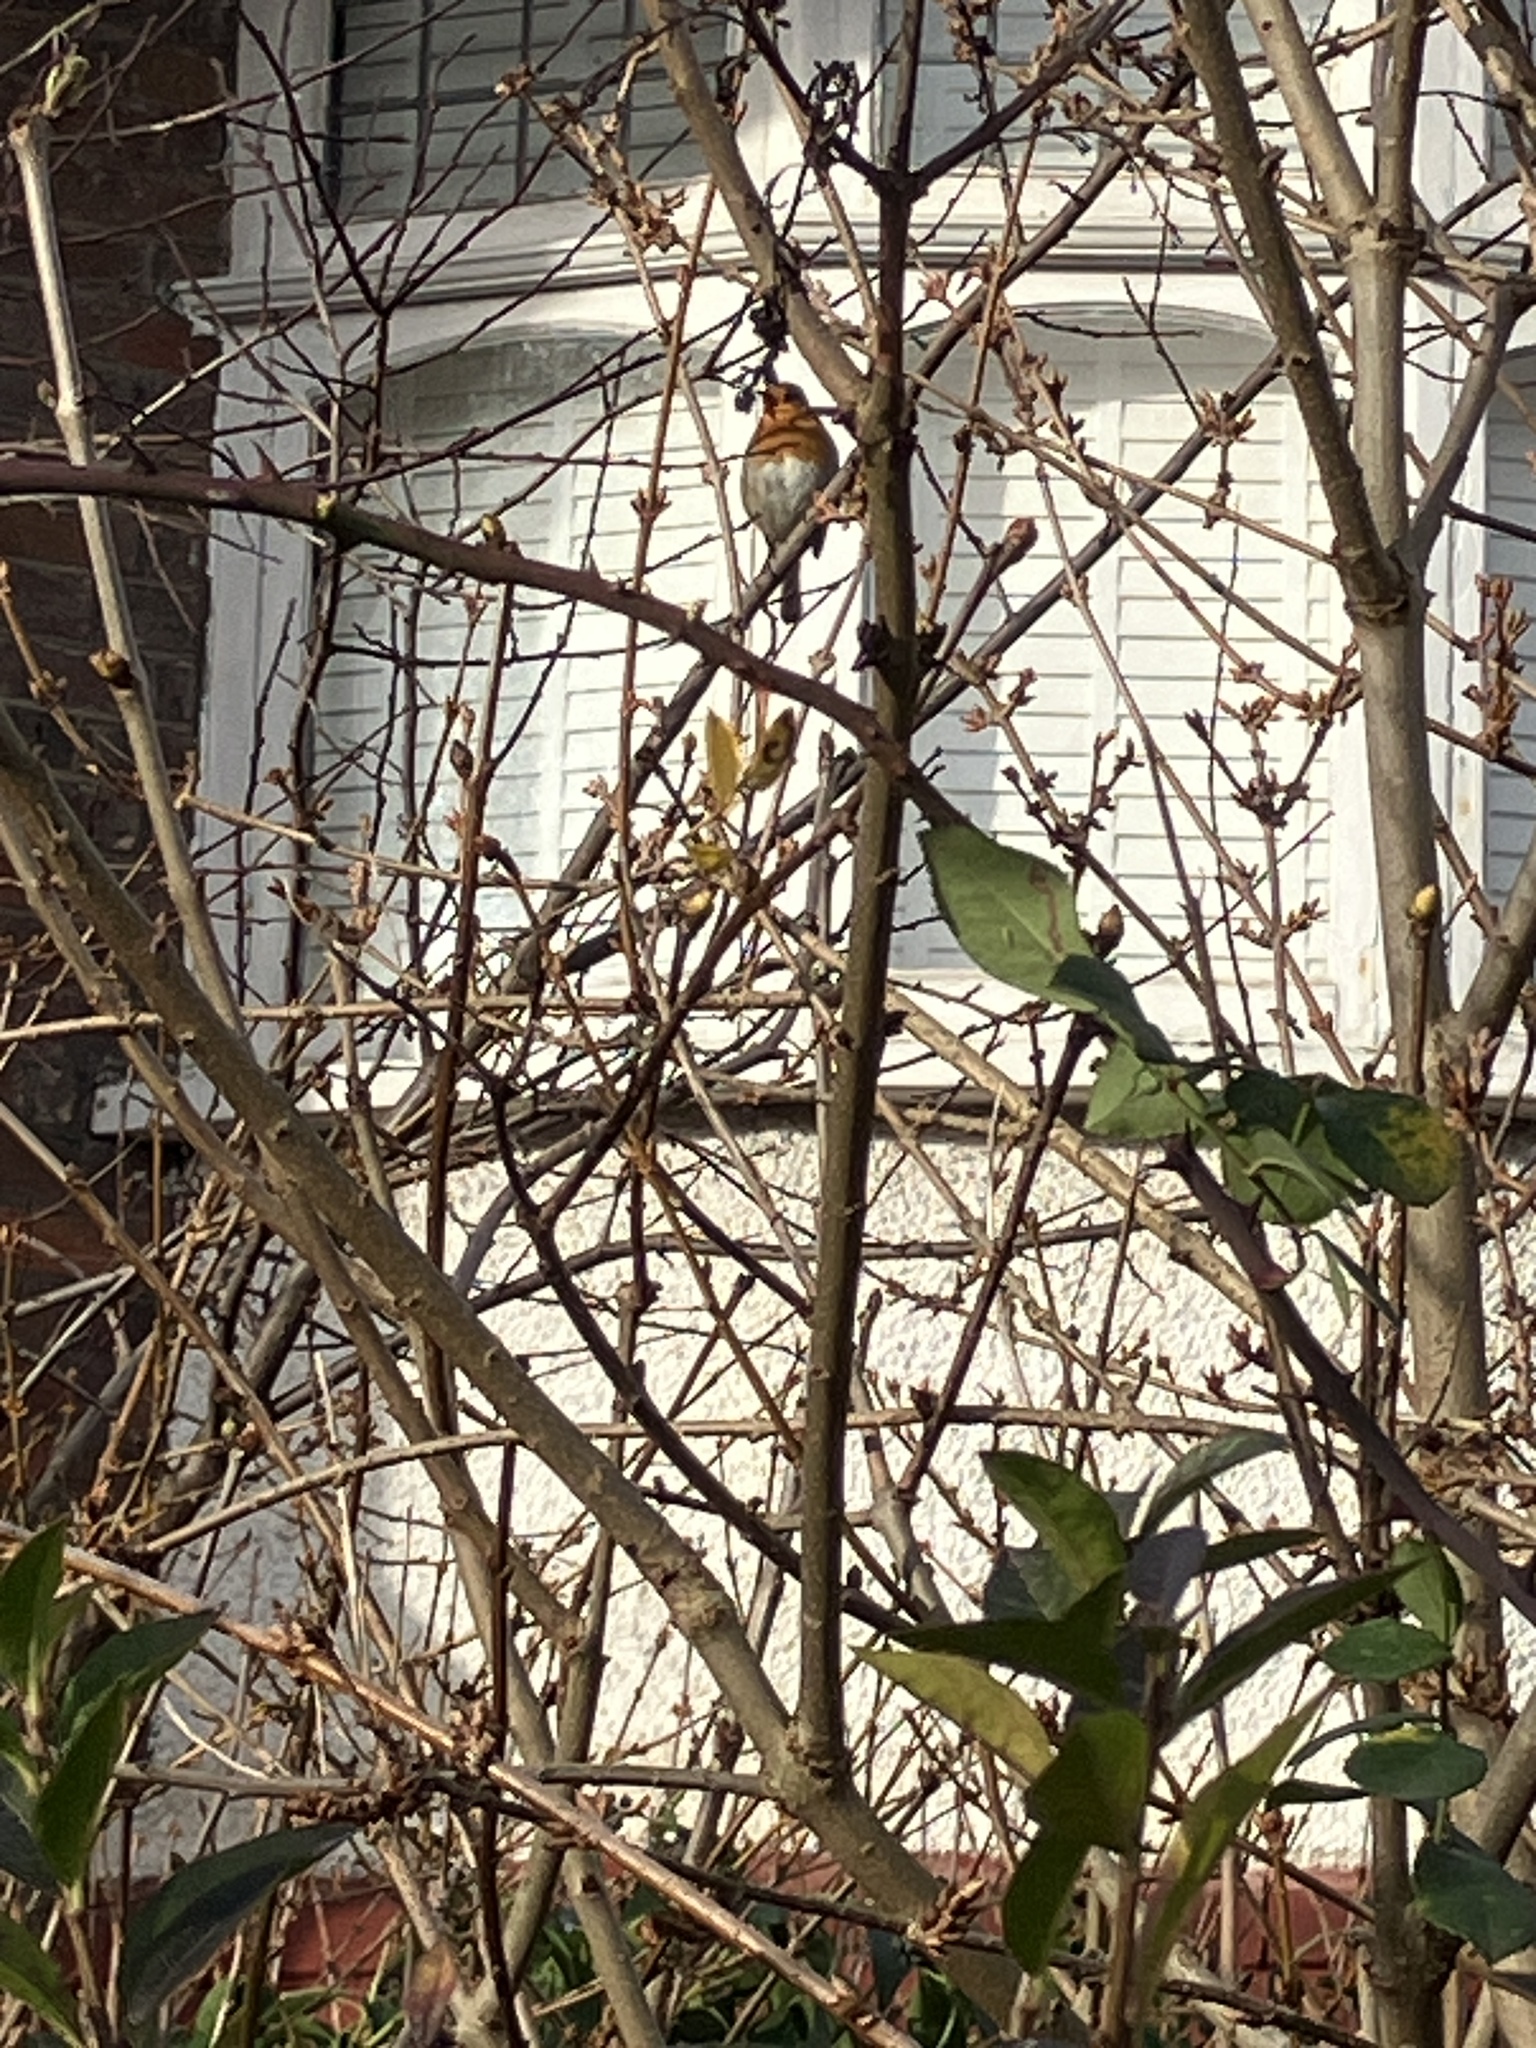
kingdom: Animalia
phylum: Chordata
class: Aves
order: Passeriformes
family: Muscicapidae
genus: Erithacus
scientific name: Erithacus rubecula
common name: European robin
